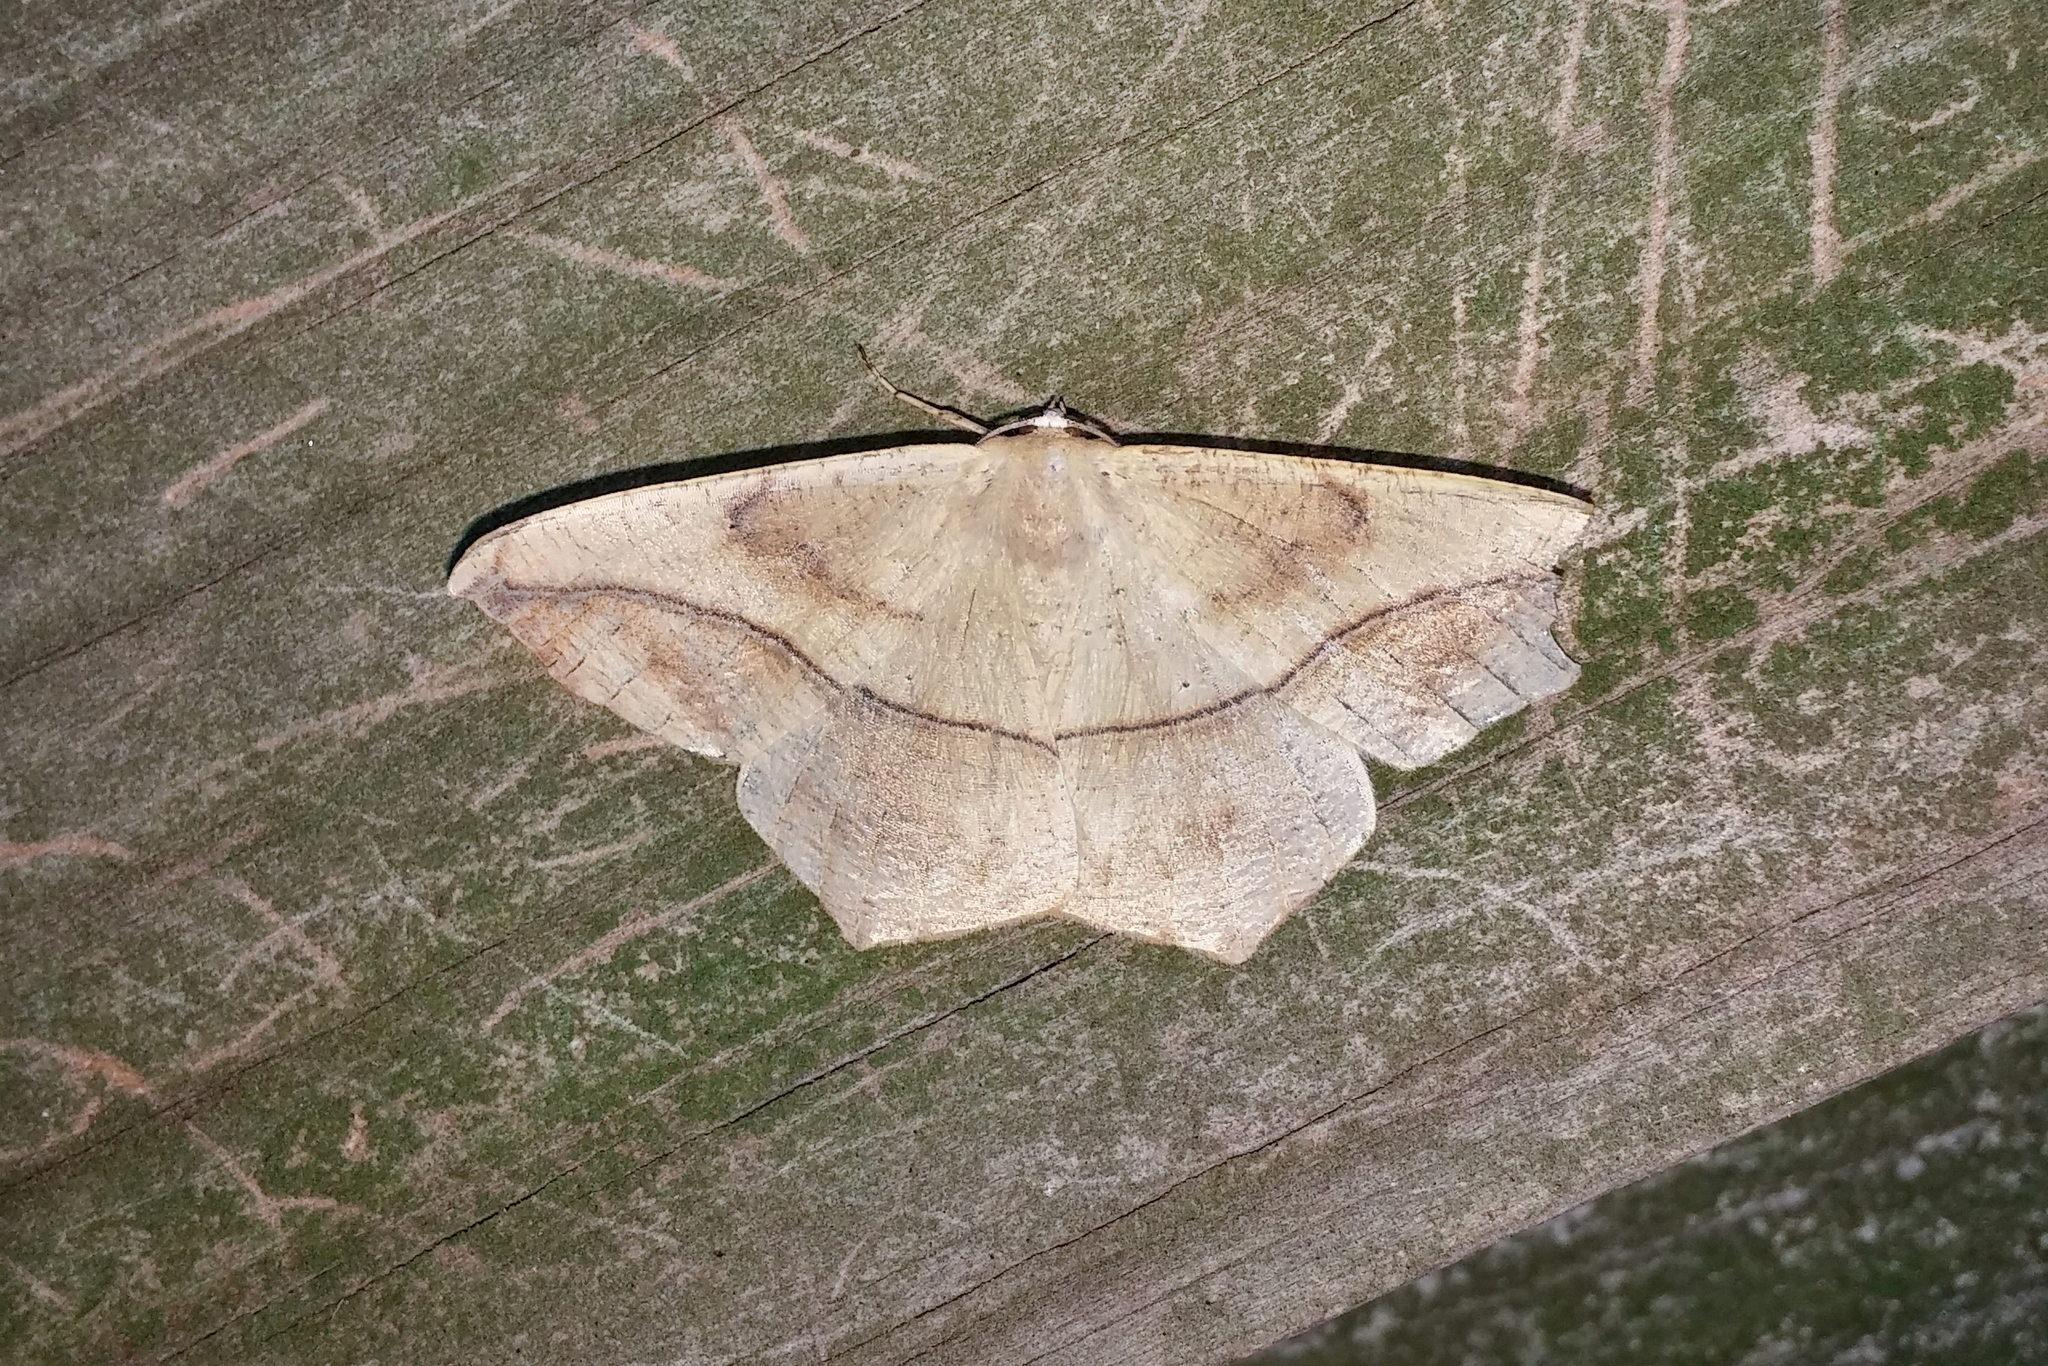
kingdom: Animalia
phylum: Arthropoda
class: Insecta
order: Lepidoptera
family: Geometridae
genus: Prochoerodes
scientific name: Prochoerodes lineola
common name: Large maple spanworm
